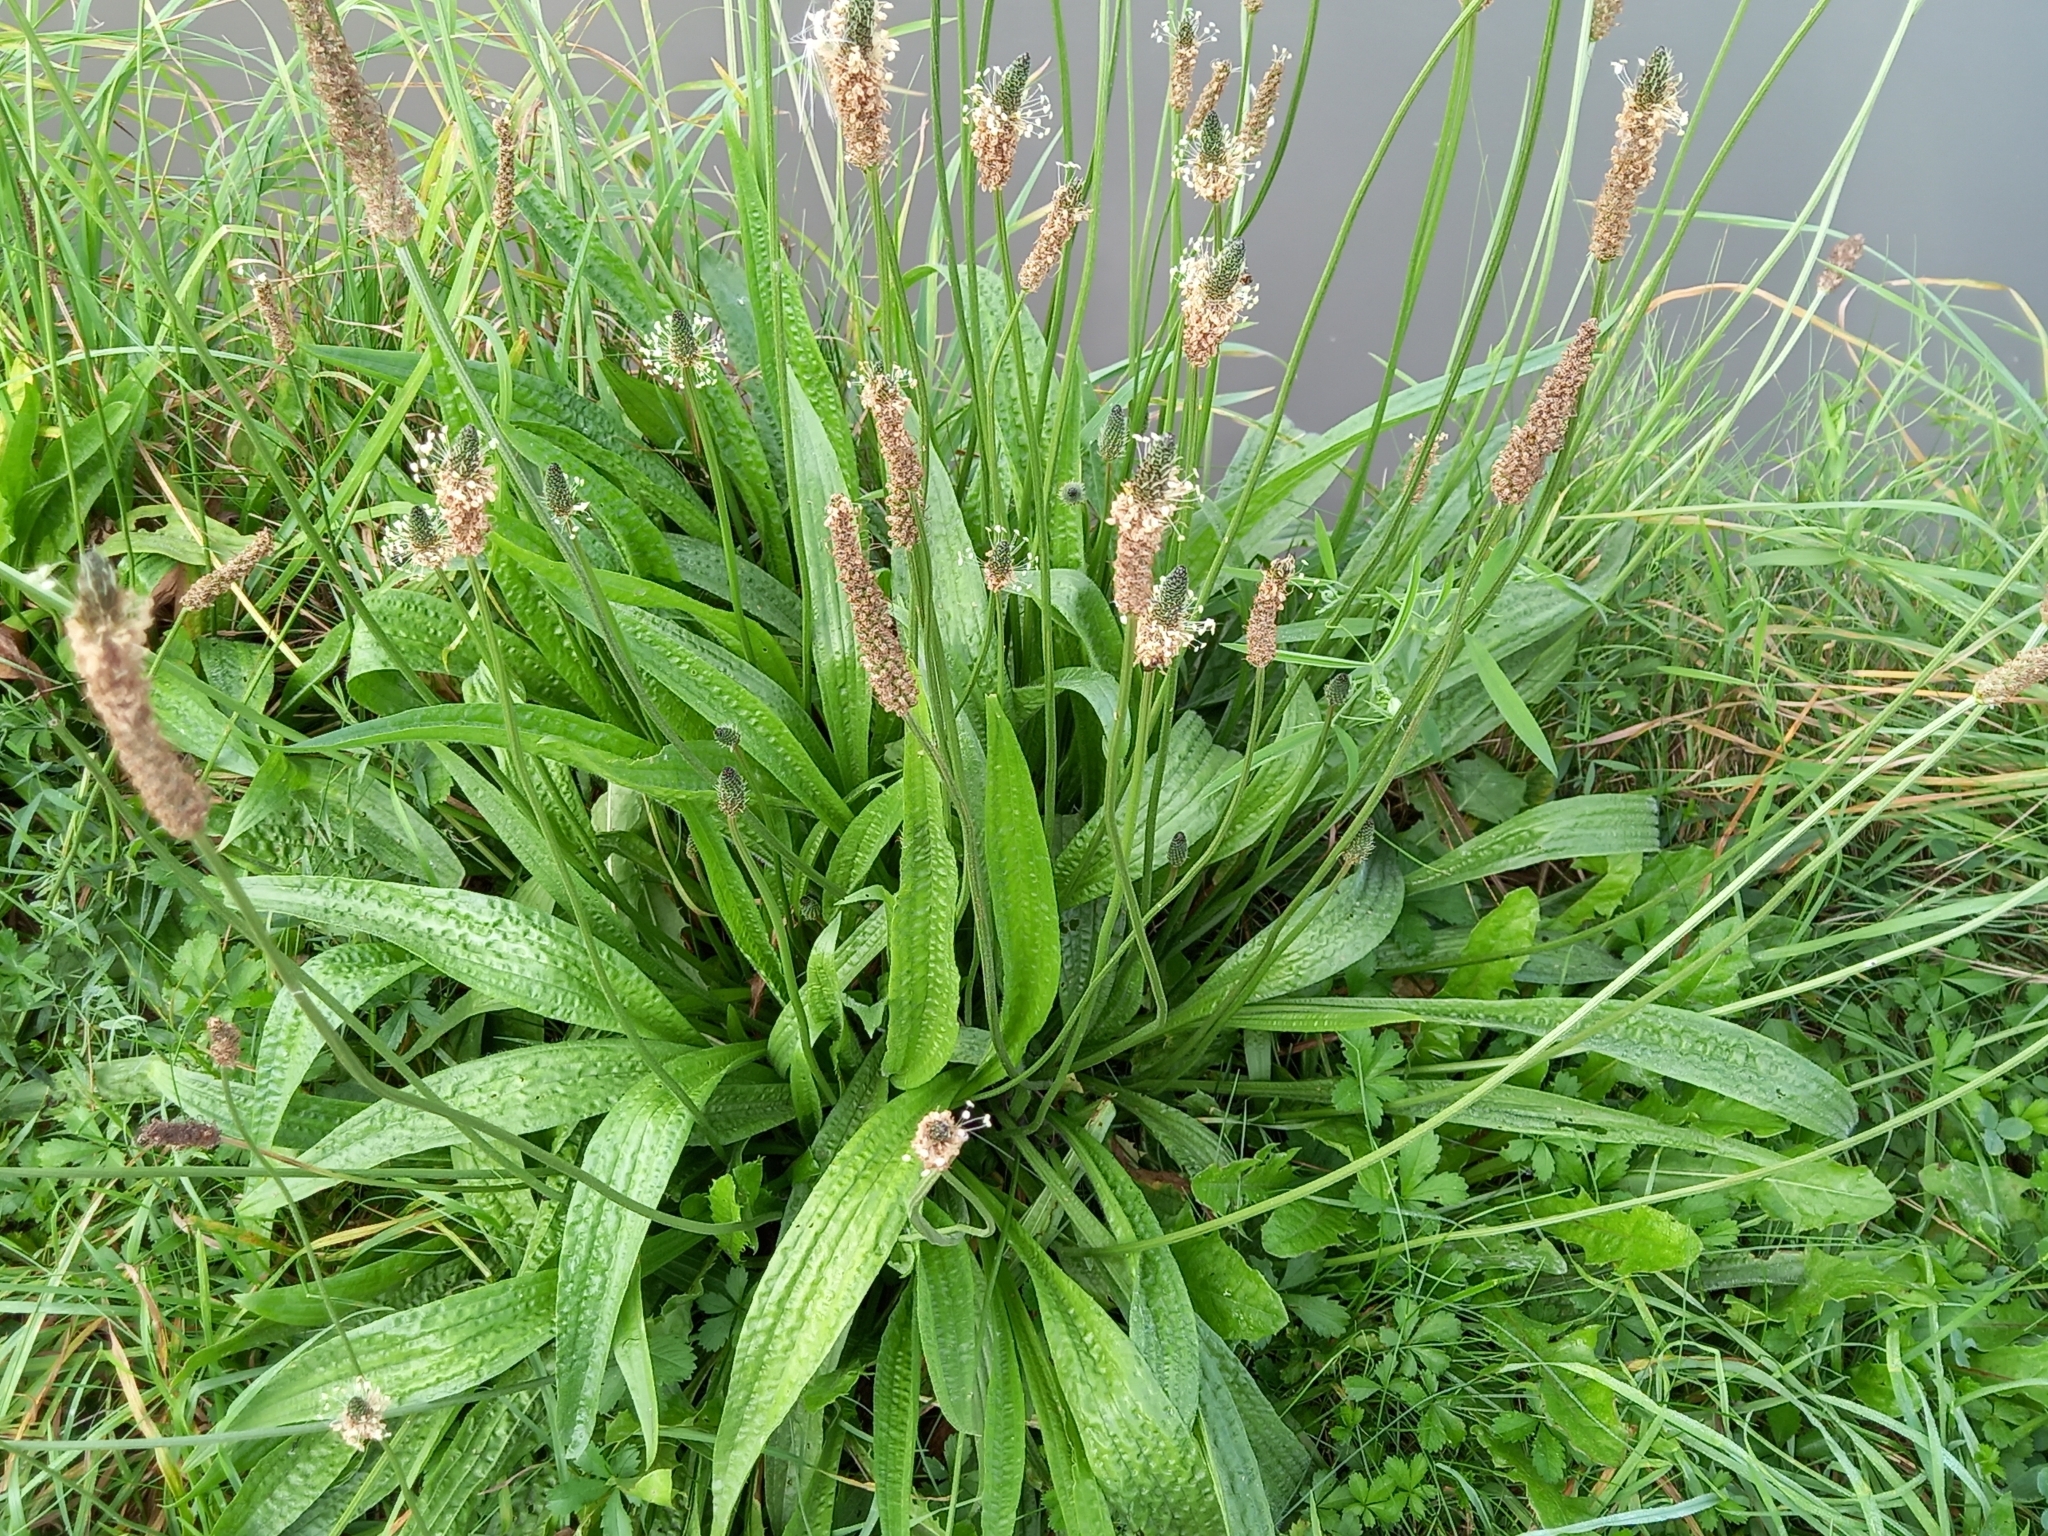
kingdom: Plantae
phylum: Tracheophyta
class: Magnoliopsida
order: Lamiales
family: Plantaginaceae
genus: Plantago
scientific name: Plantago lanceolata
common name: Ribwort plantain
